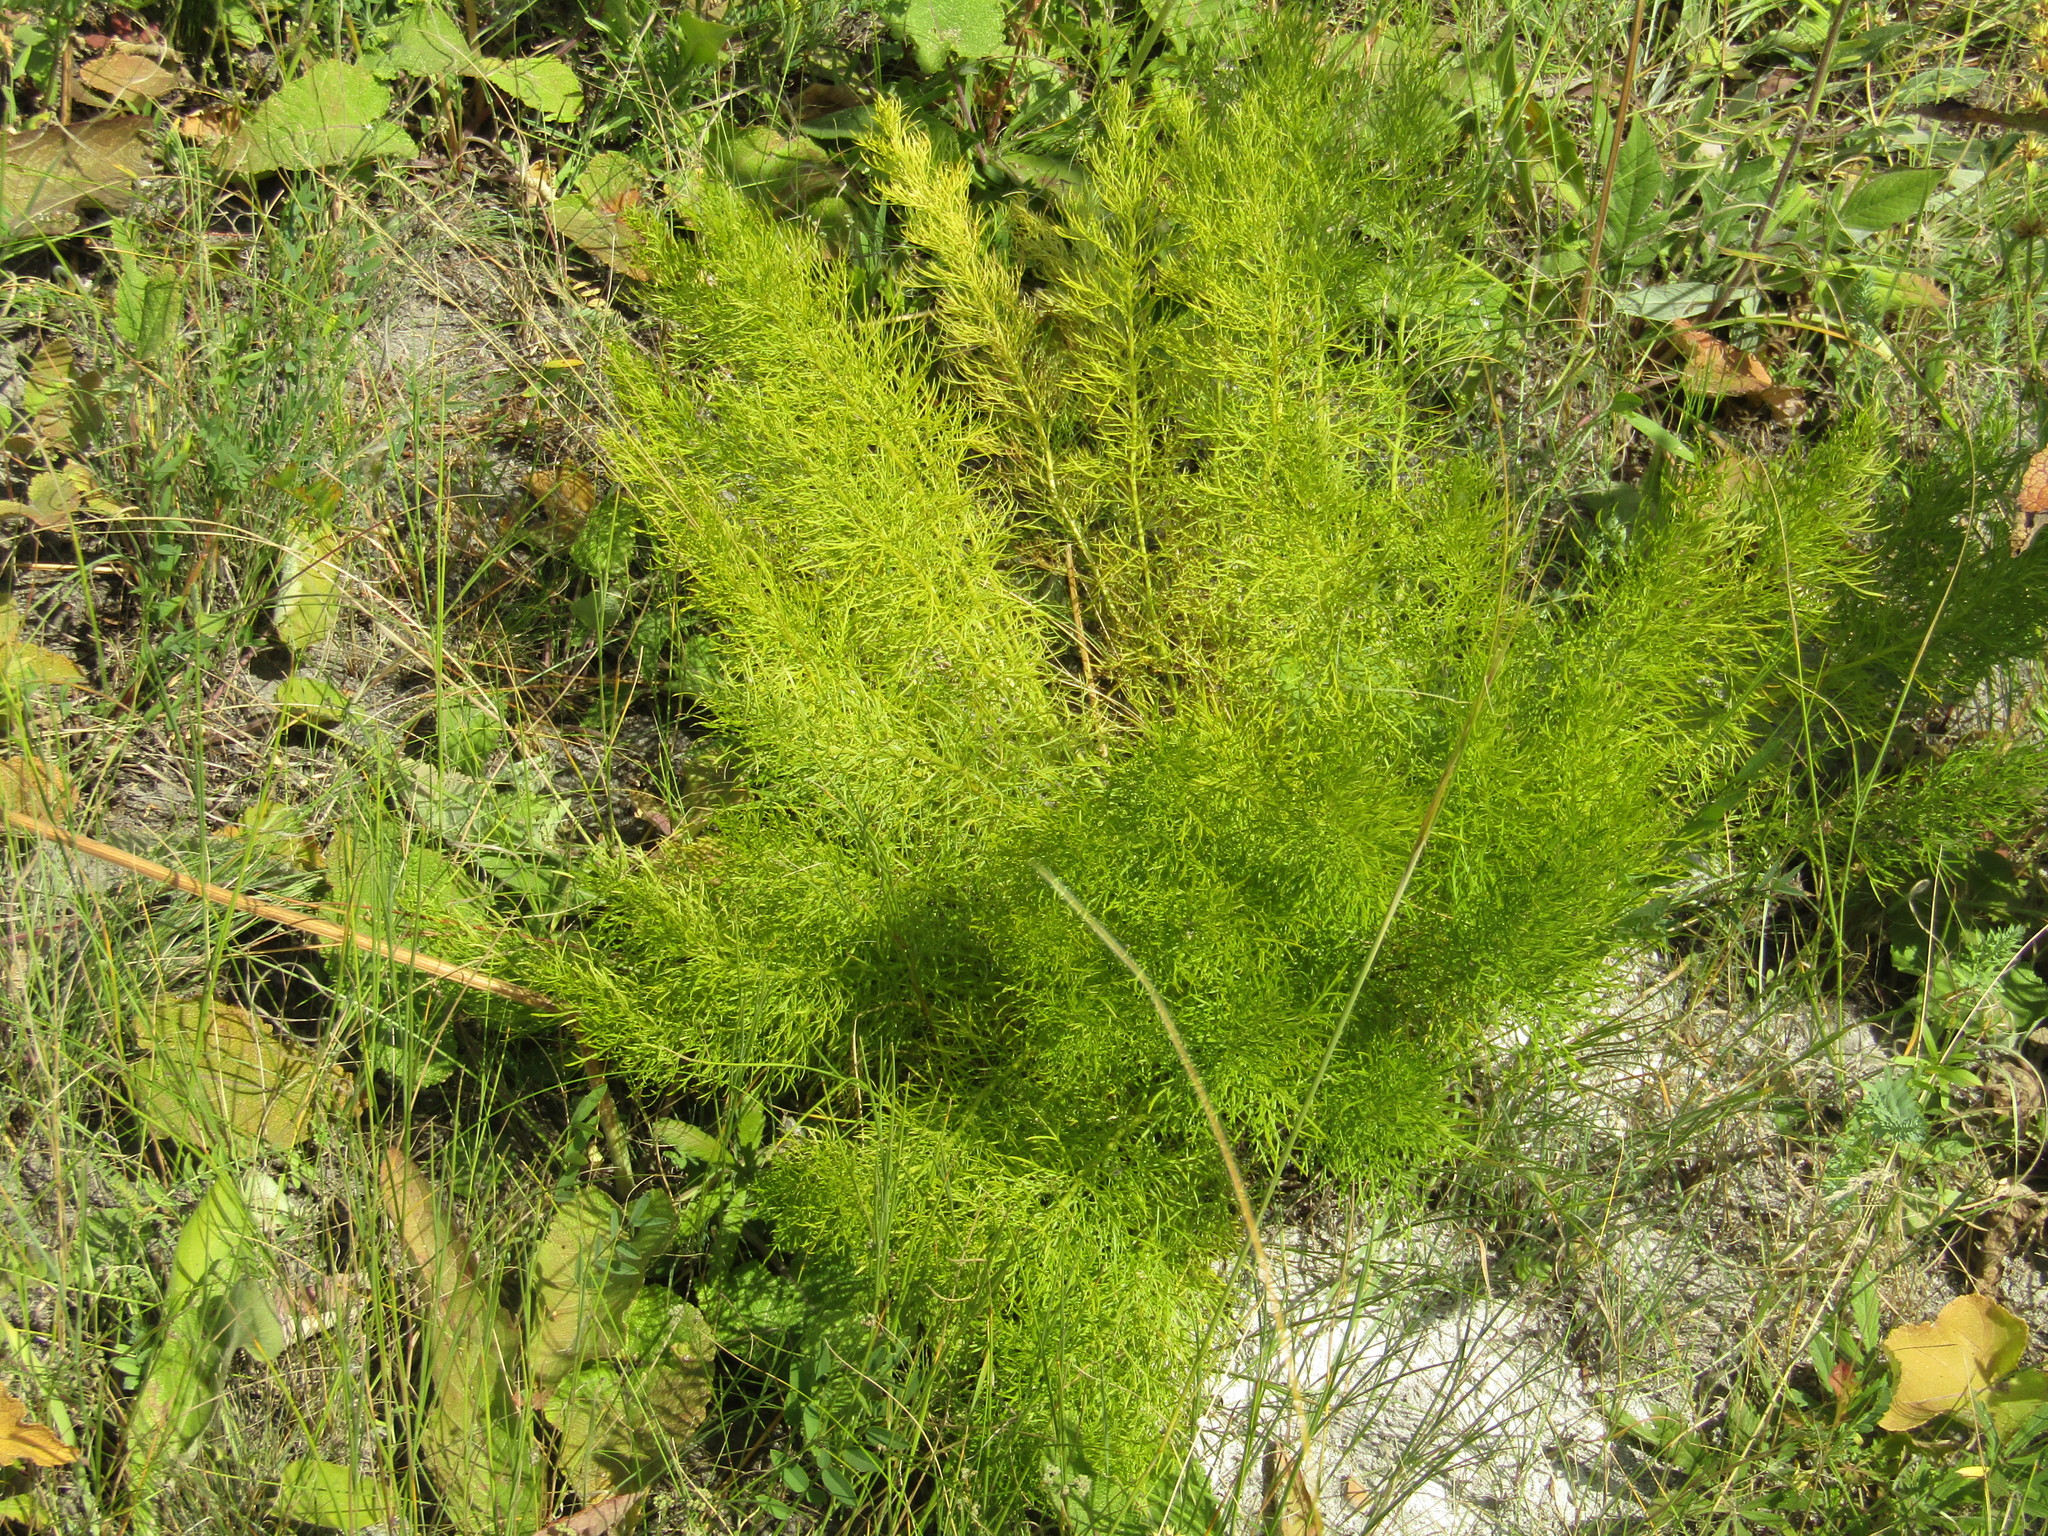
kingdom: Plantae
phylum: Tracheophyta
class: Magnoliopsida
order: Ranunculales
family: Ranunculaceae
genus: Adonis
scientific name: Adonis vernalis
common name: Yellow pheasants-eye
